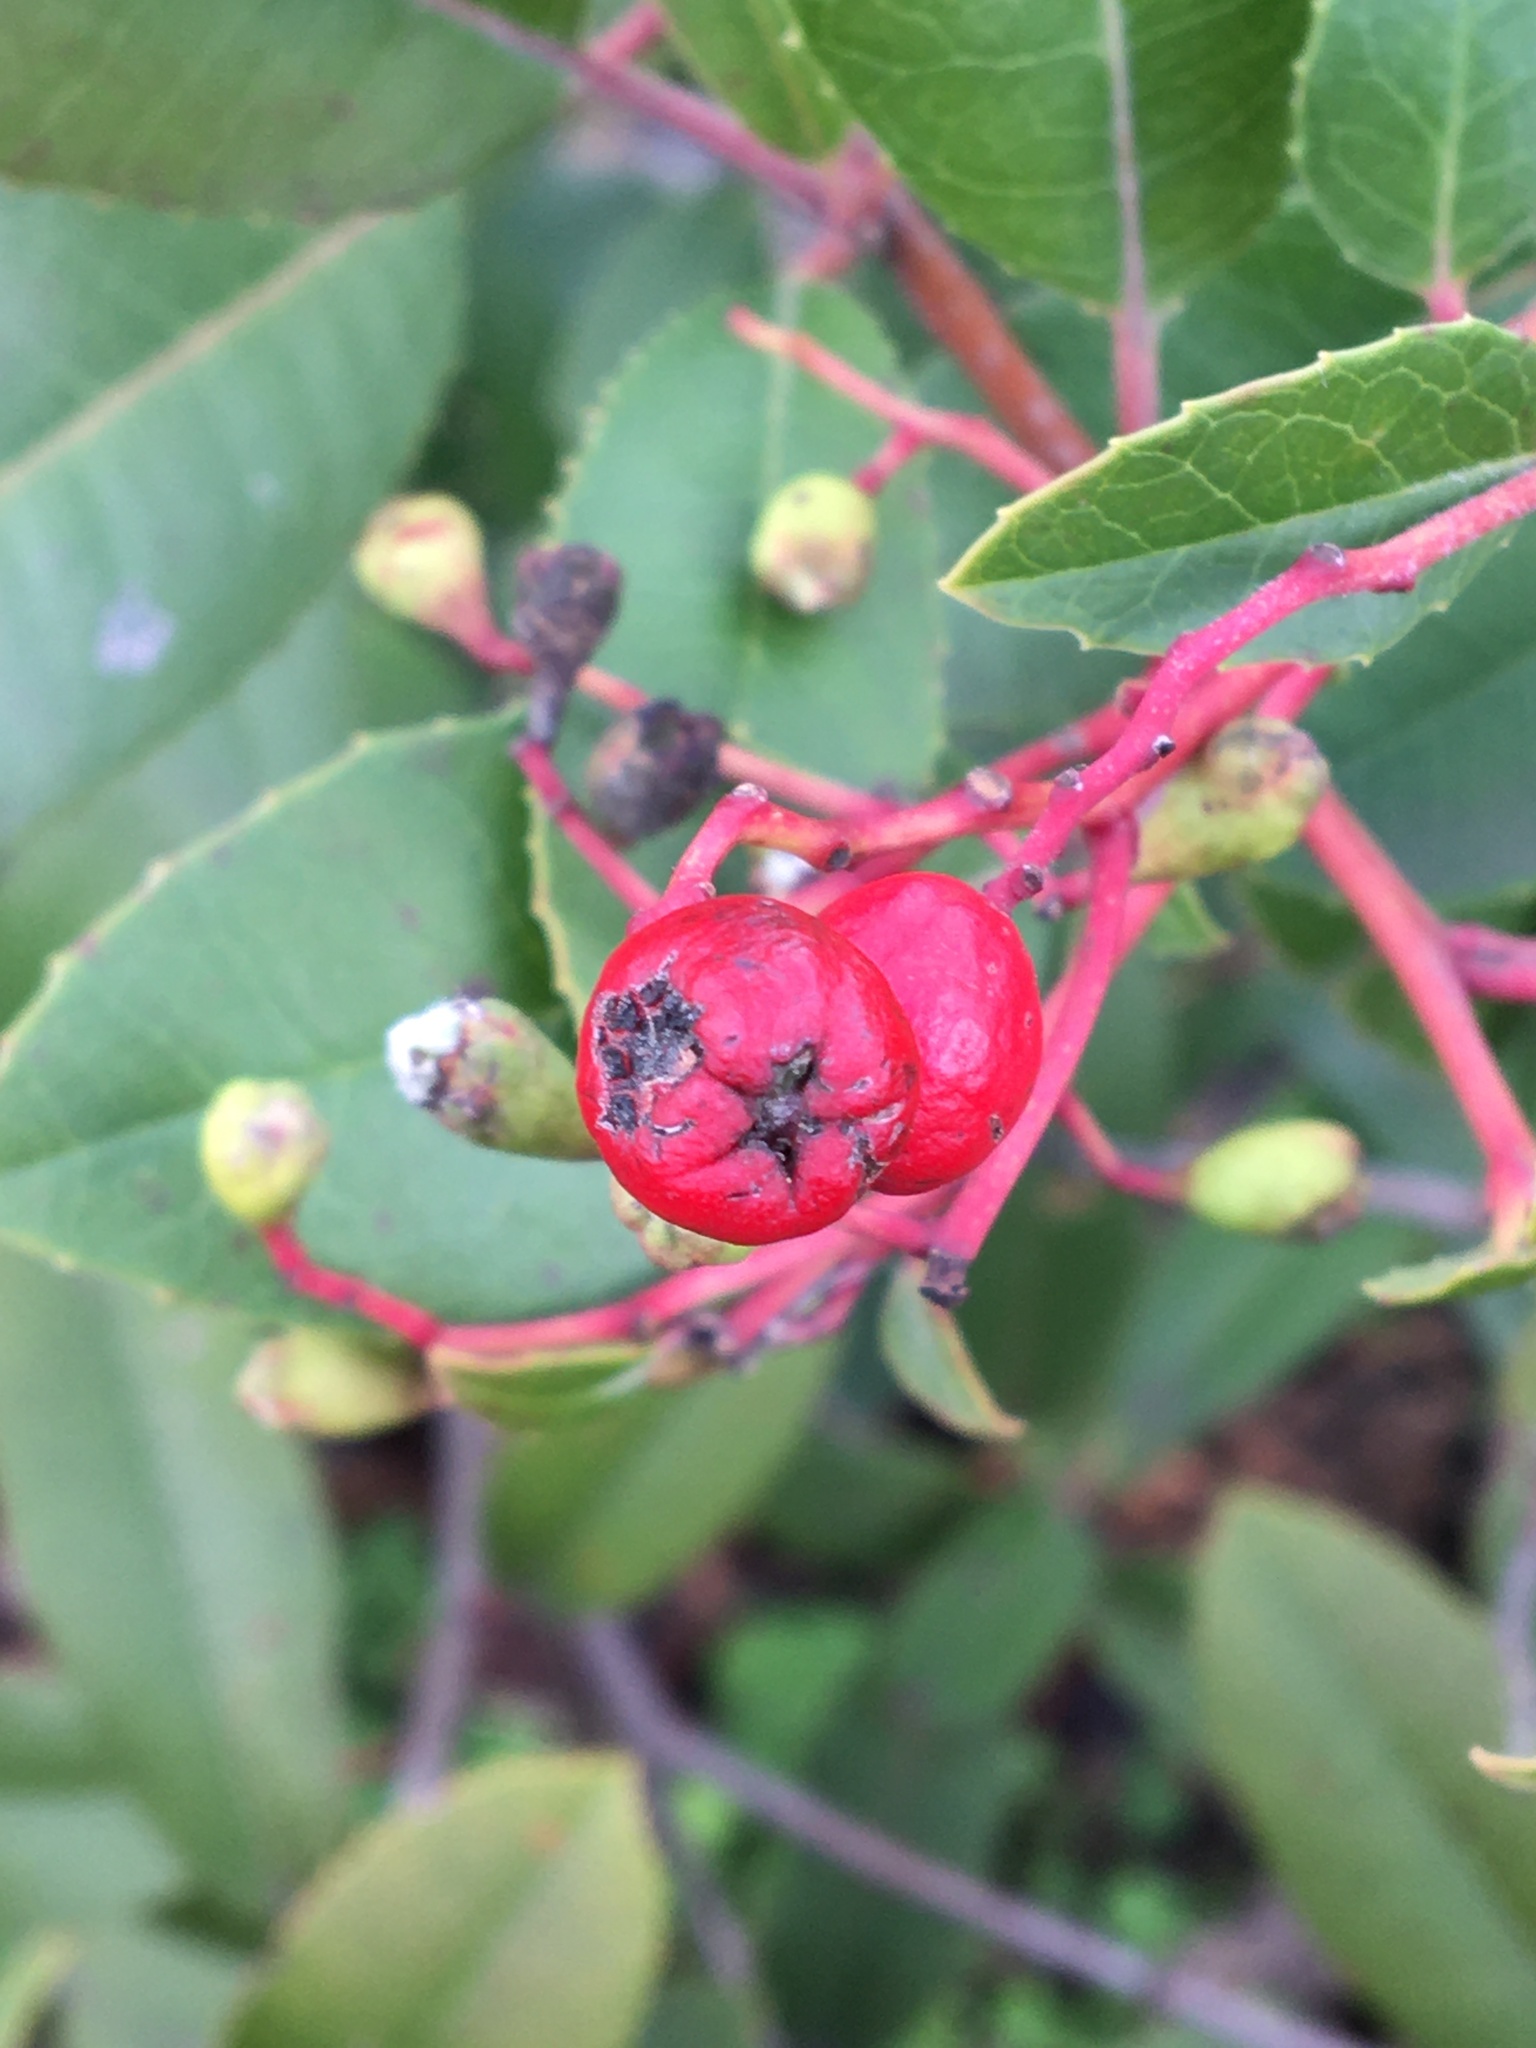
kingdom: Plantae
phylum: Tracheophyta
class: Magnoliopsida
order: Rosales
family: Rosaceae
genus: Heteromeles
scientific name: Heteromeles arbutifolia
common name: California-holly
